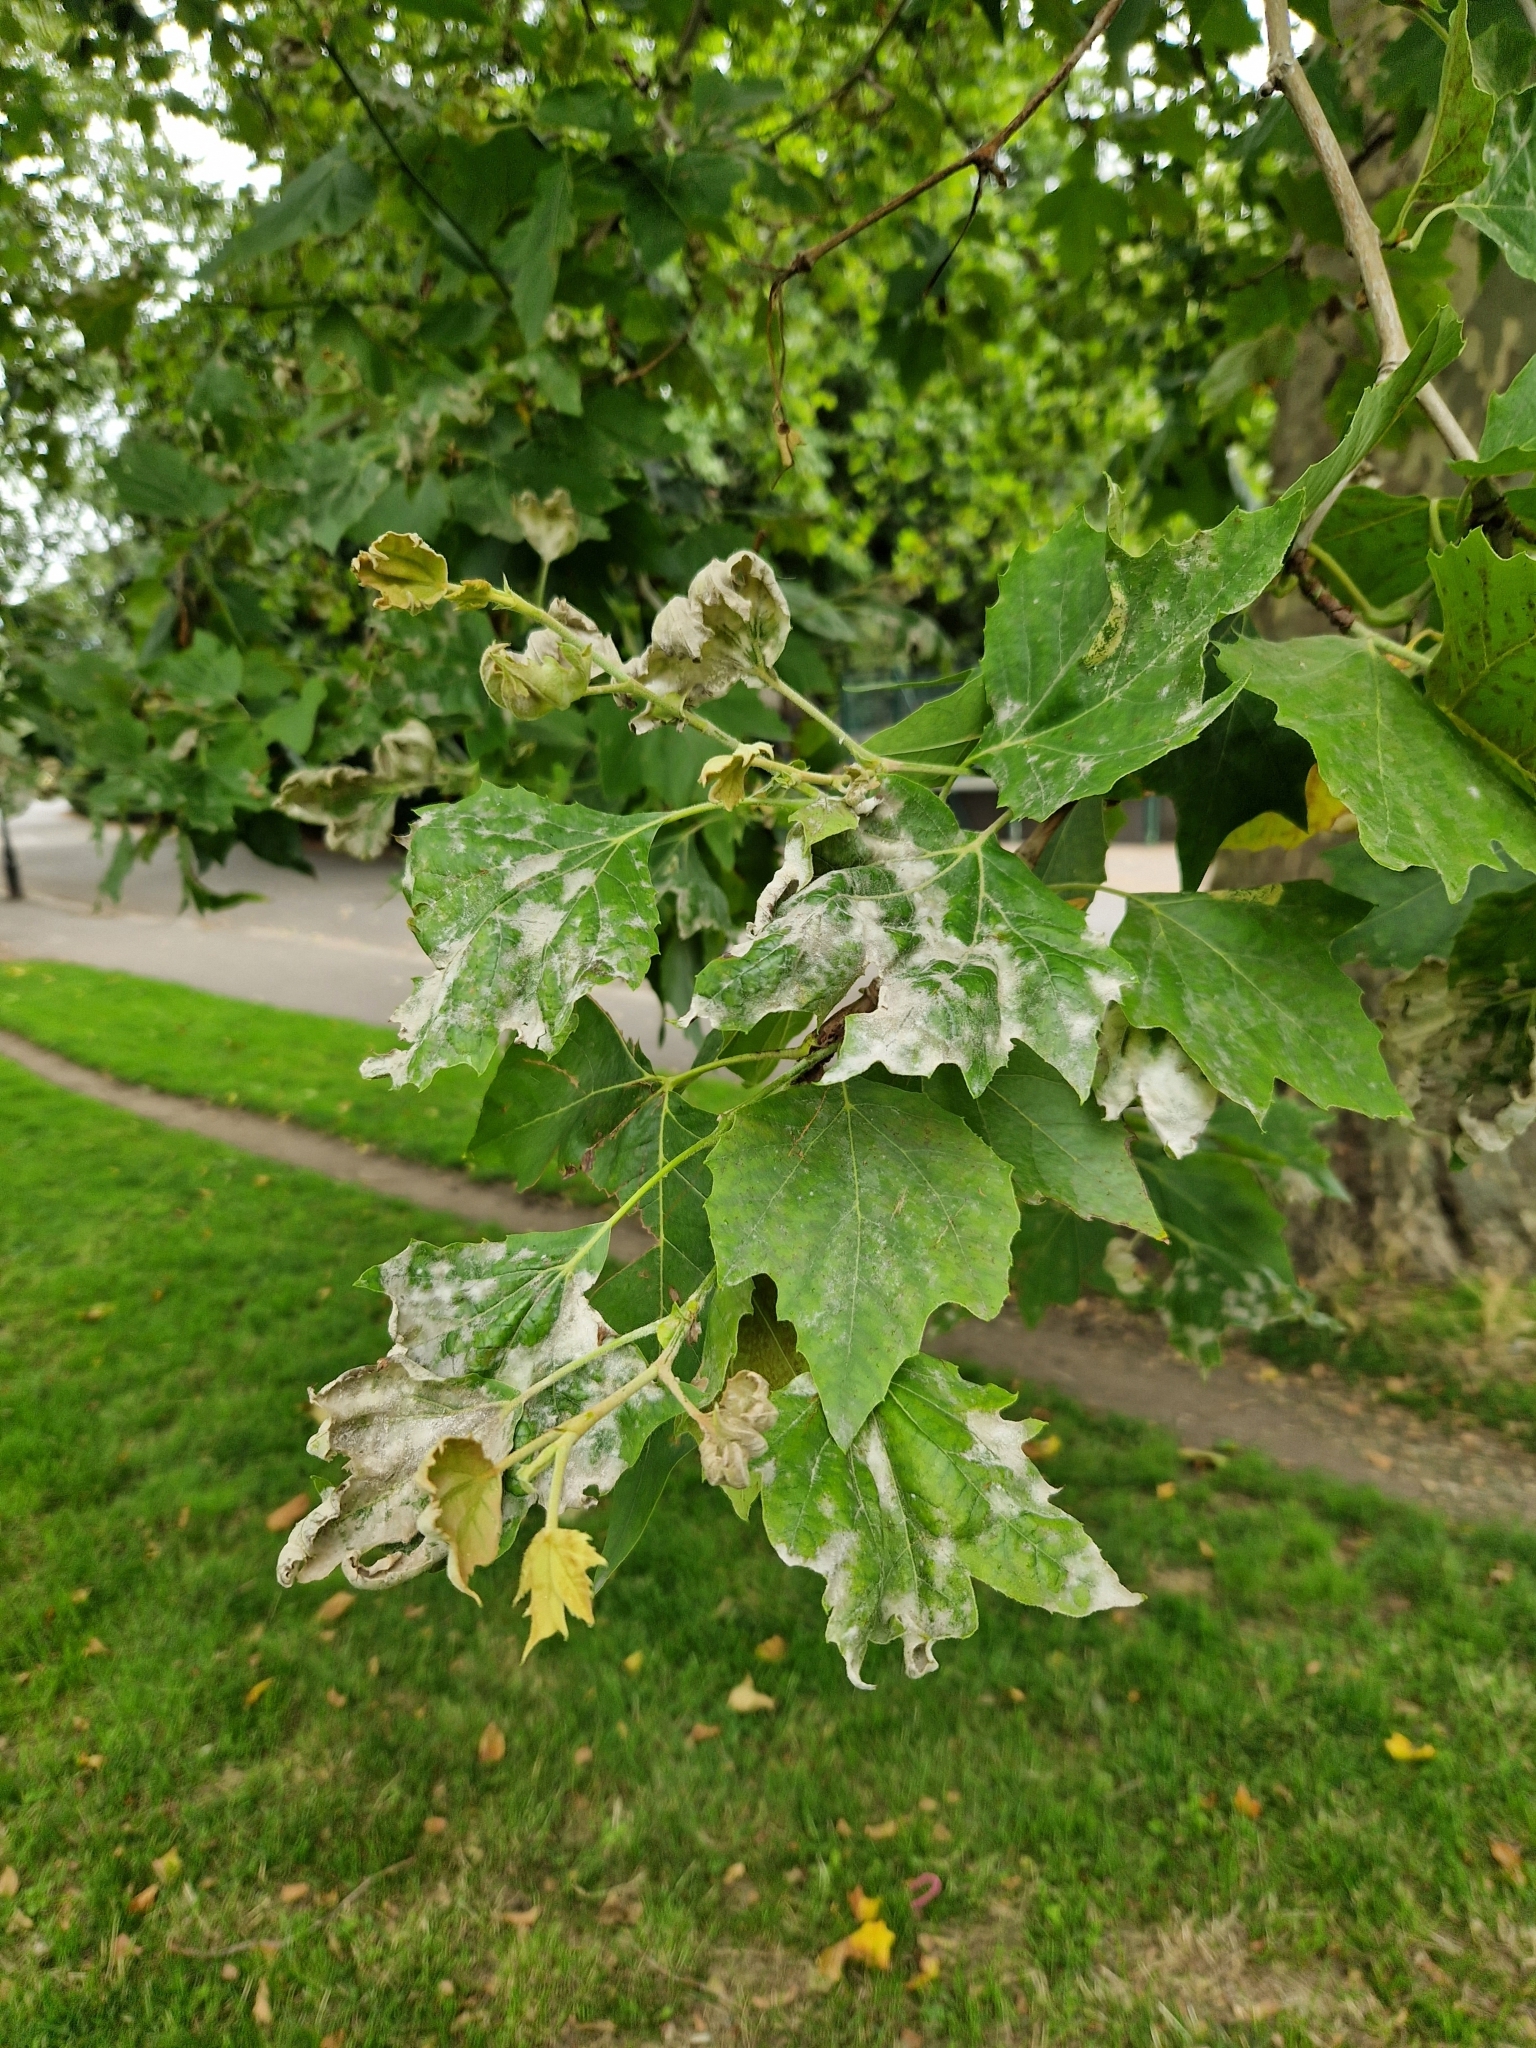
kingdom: Fungi
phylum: Ascomycota
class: Leotiomycetes
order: Helotiales
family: Erysiphaceae
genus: Erysiphe
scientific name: Erysiphe platani
